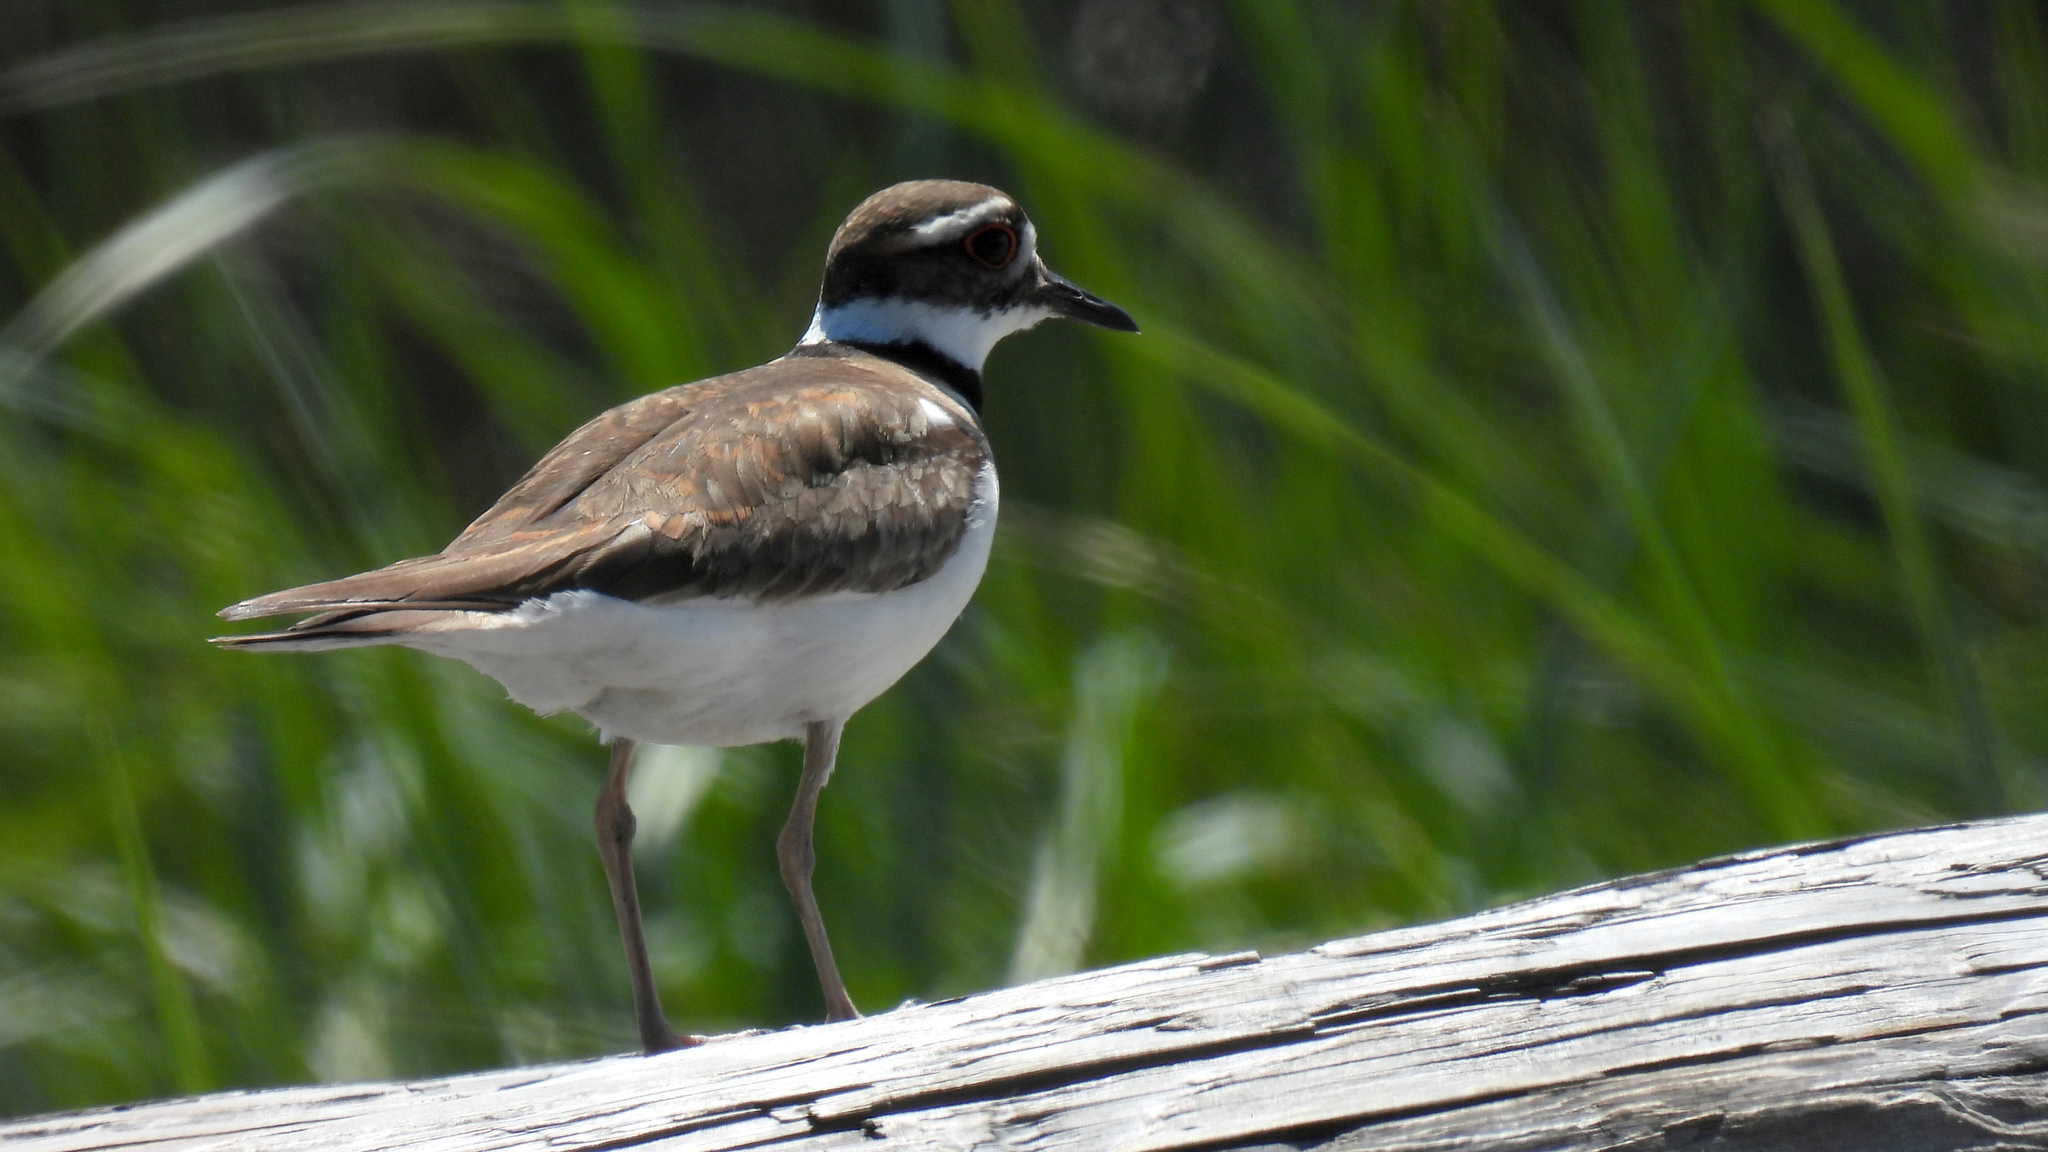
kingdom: Animalia
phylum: Chordata
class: Aves
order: Charadriiformes
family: Charadriidae
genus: Charadrius
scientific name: Charadrius vociferus
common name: Killdeer
